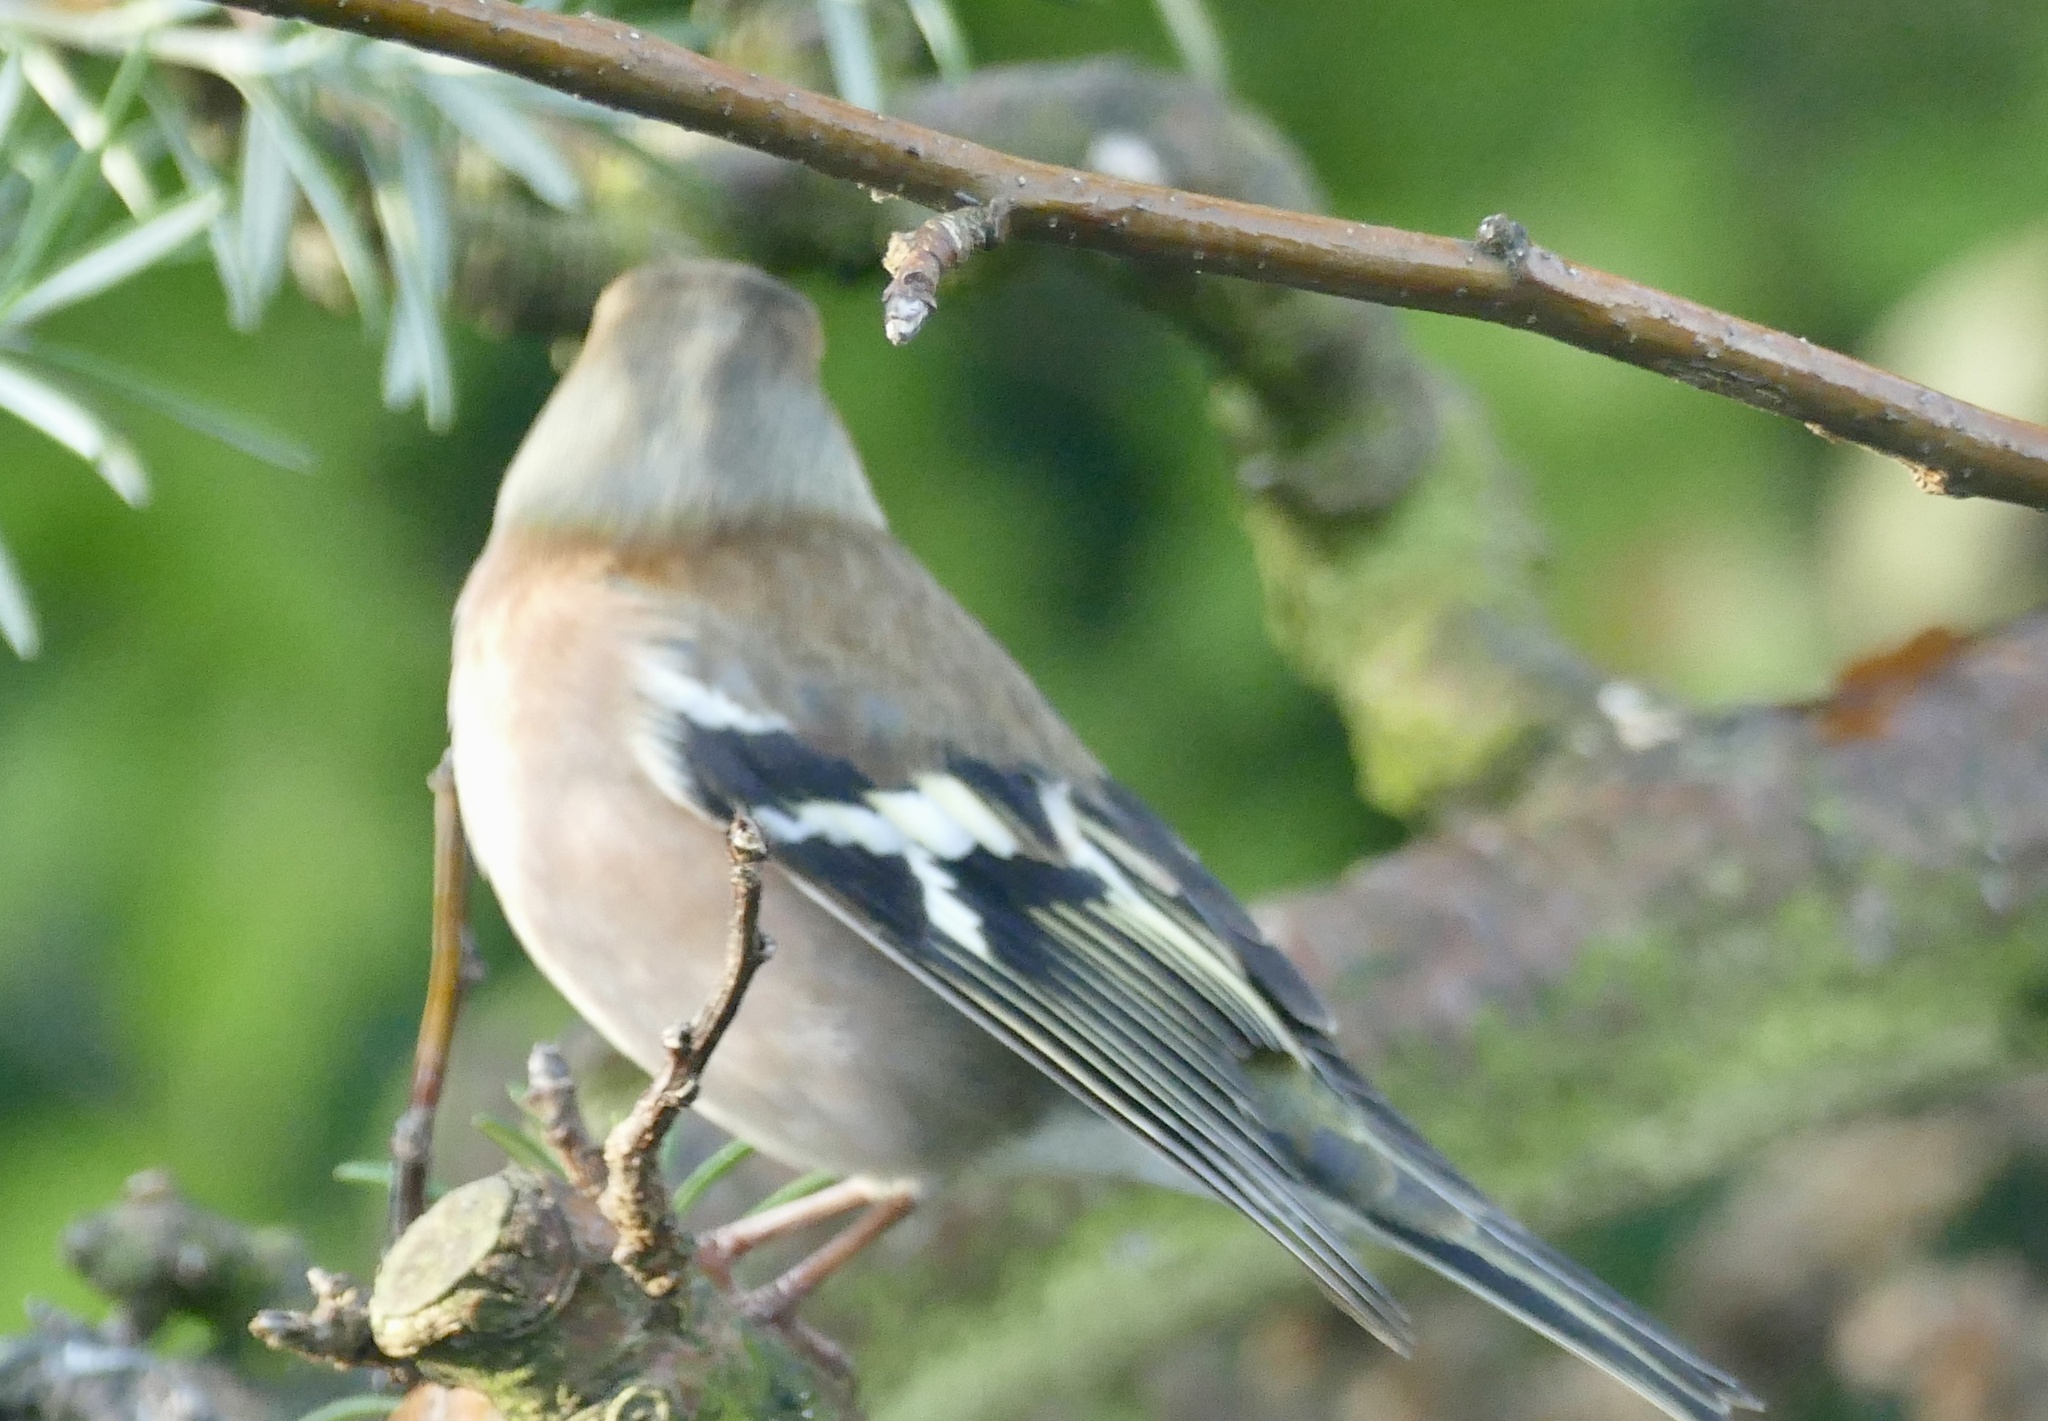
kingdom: Animalia
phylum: Chordata
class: Aves
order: Passeriformes
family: Fringillidae
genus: Fringilla
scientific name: Fringilla coelebs
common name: Common chaffinch
